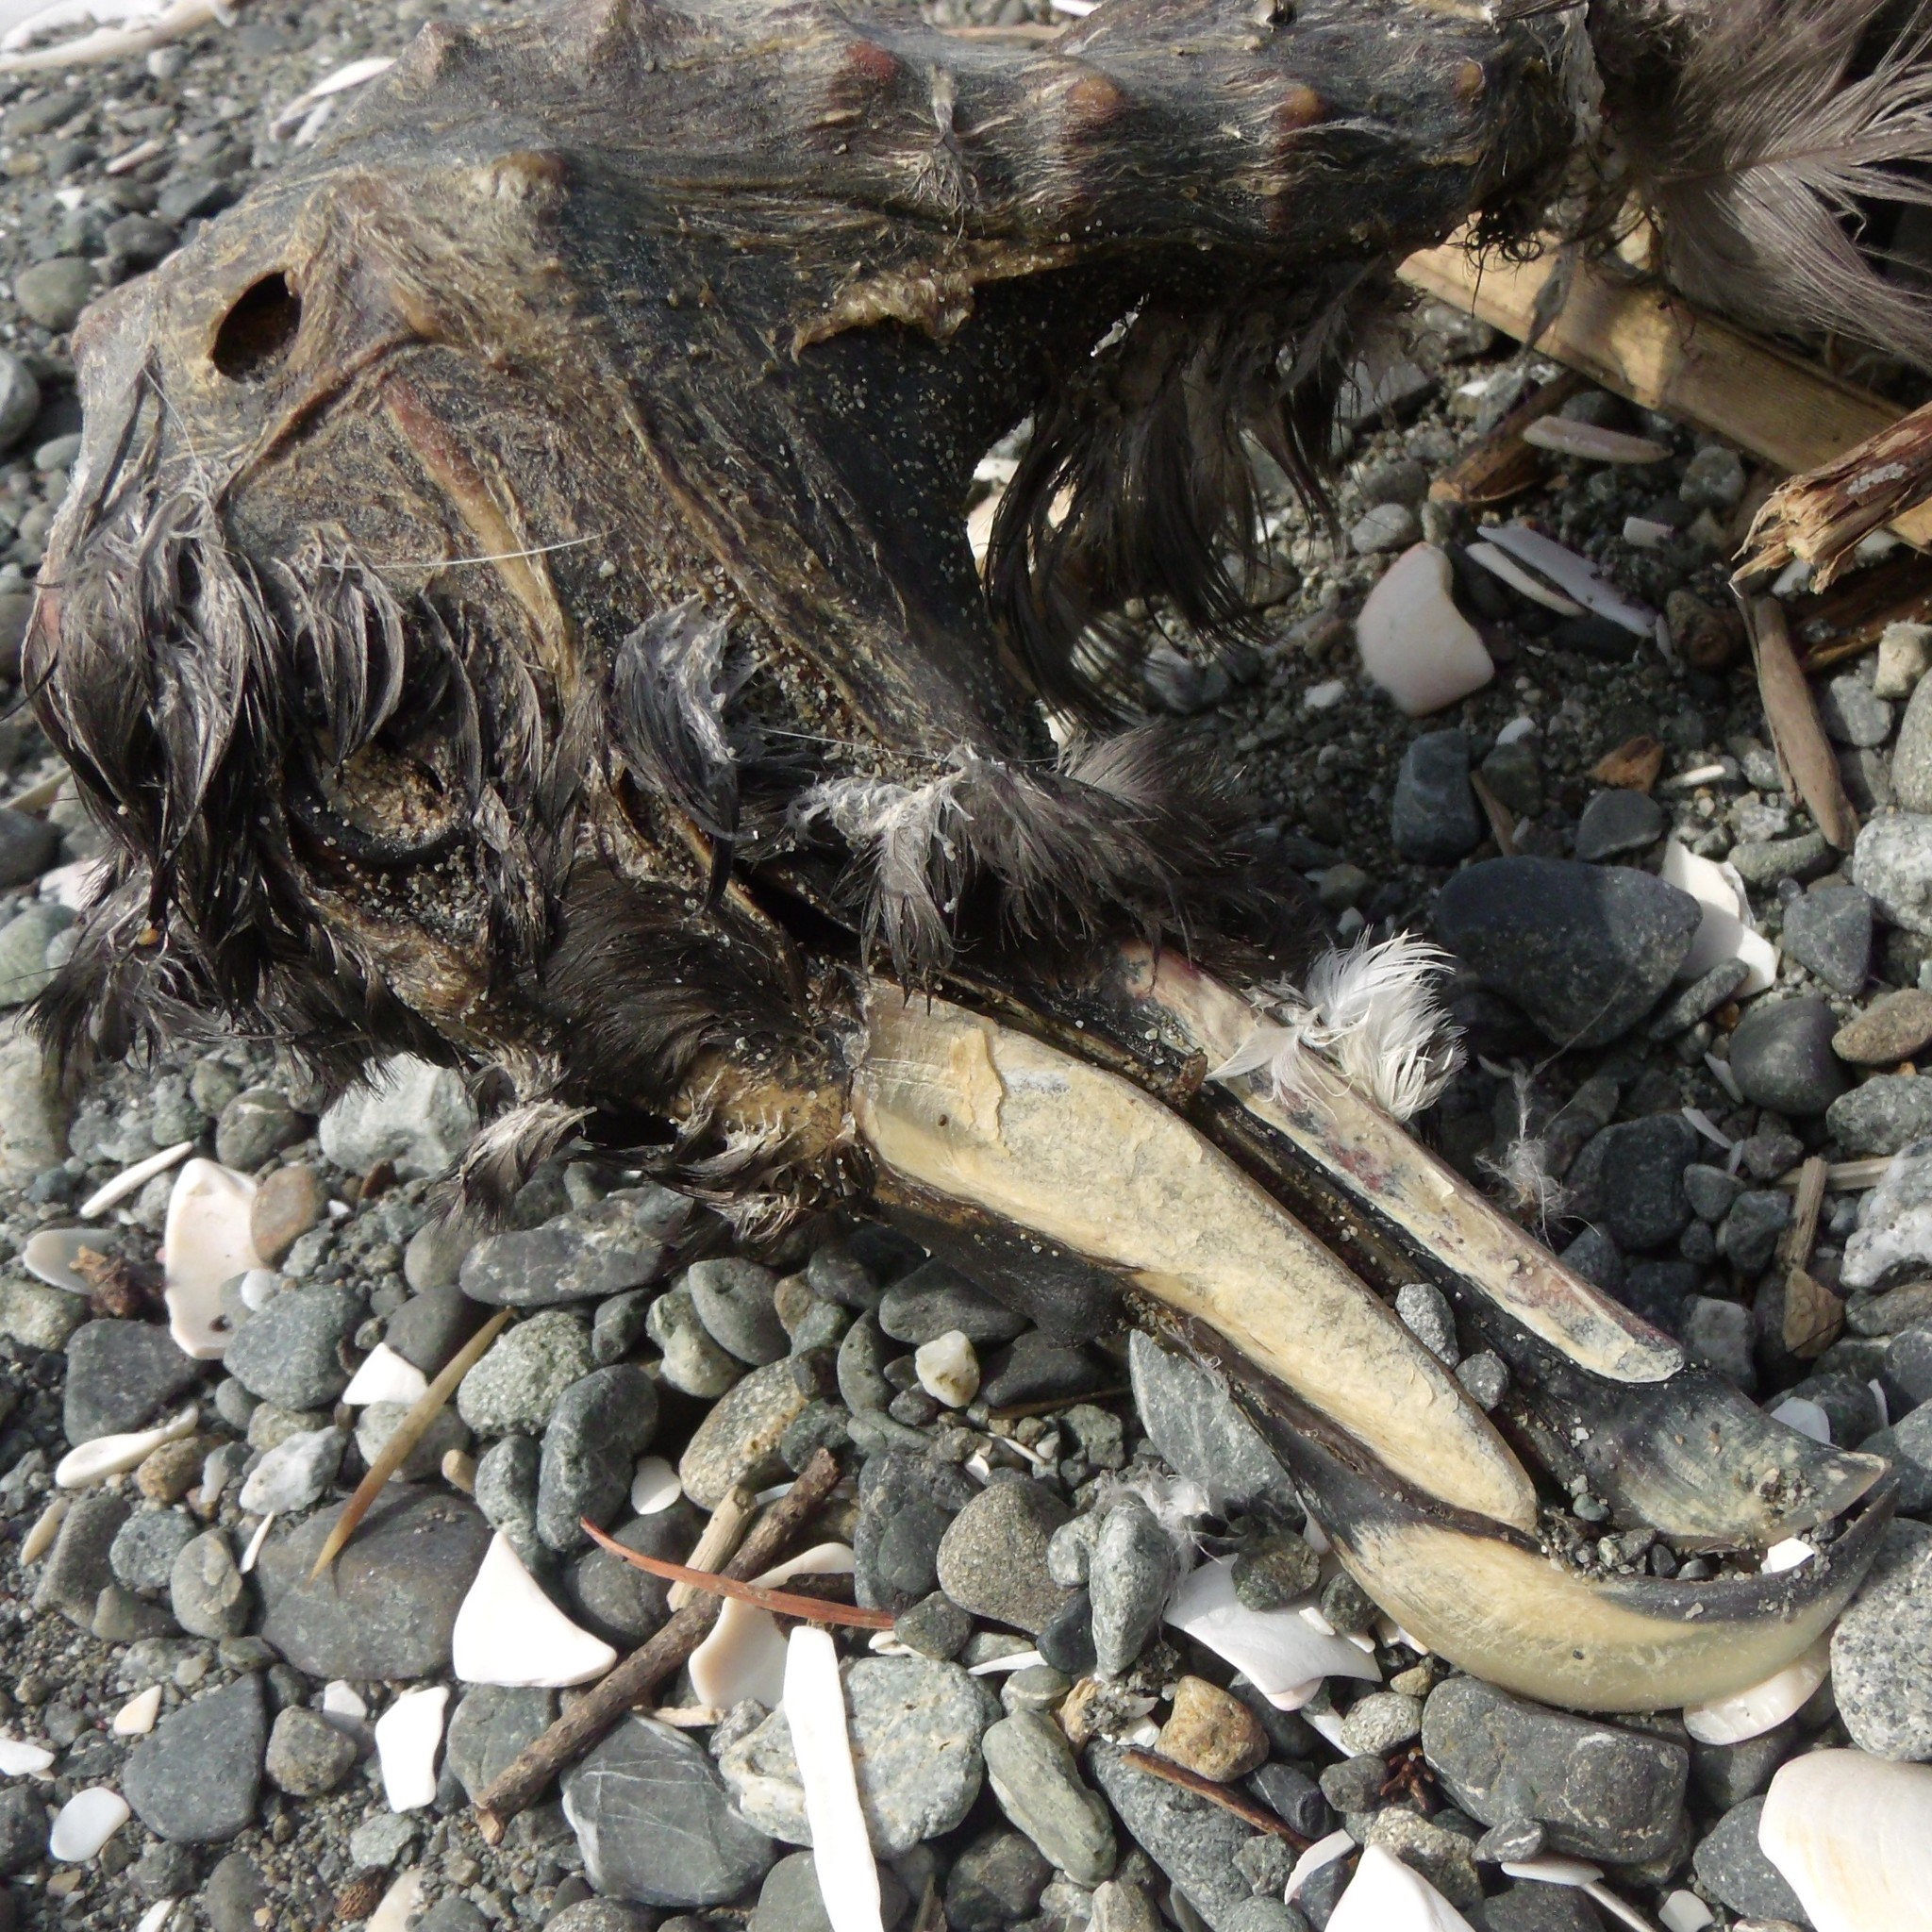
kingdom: Animalia
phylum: Chordata
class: Aves
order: Procellariiformes
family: Procellariidae
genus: Procellaria
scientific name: Procellaria westlandica
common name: Westland petrel
